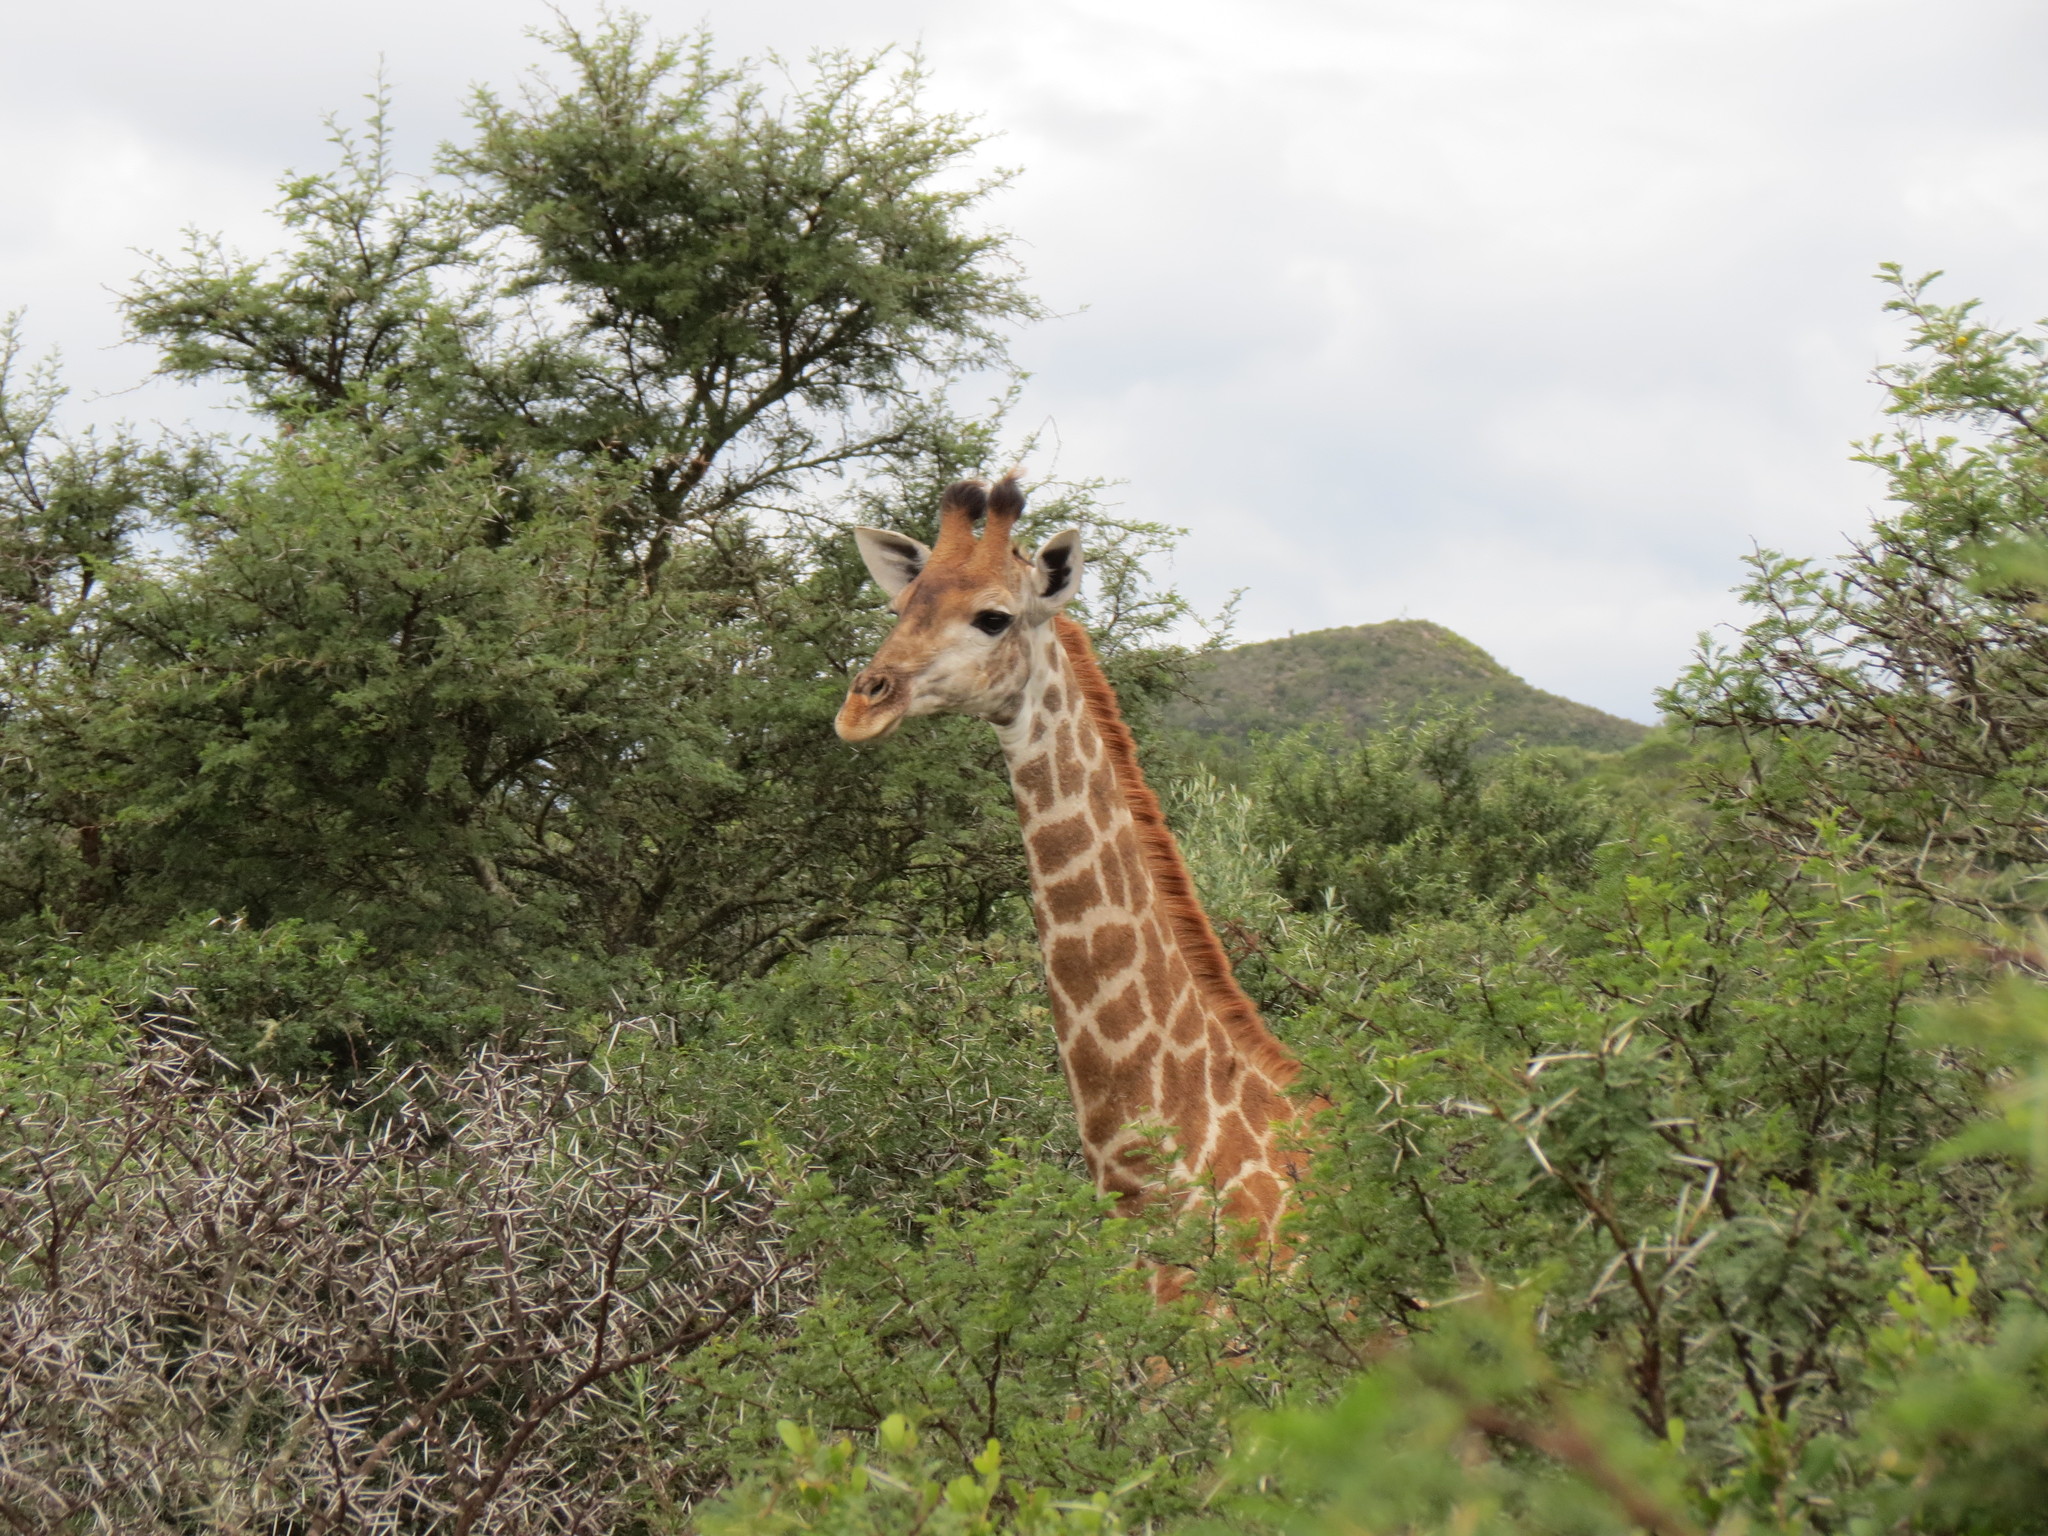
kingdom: Animalia
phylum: Chordata
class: Mammalia
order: Artiodactyla
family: Giraffidae
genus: Giraffa
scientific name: Giraffa giraffa
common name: Southern giraffe
